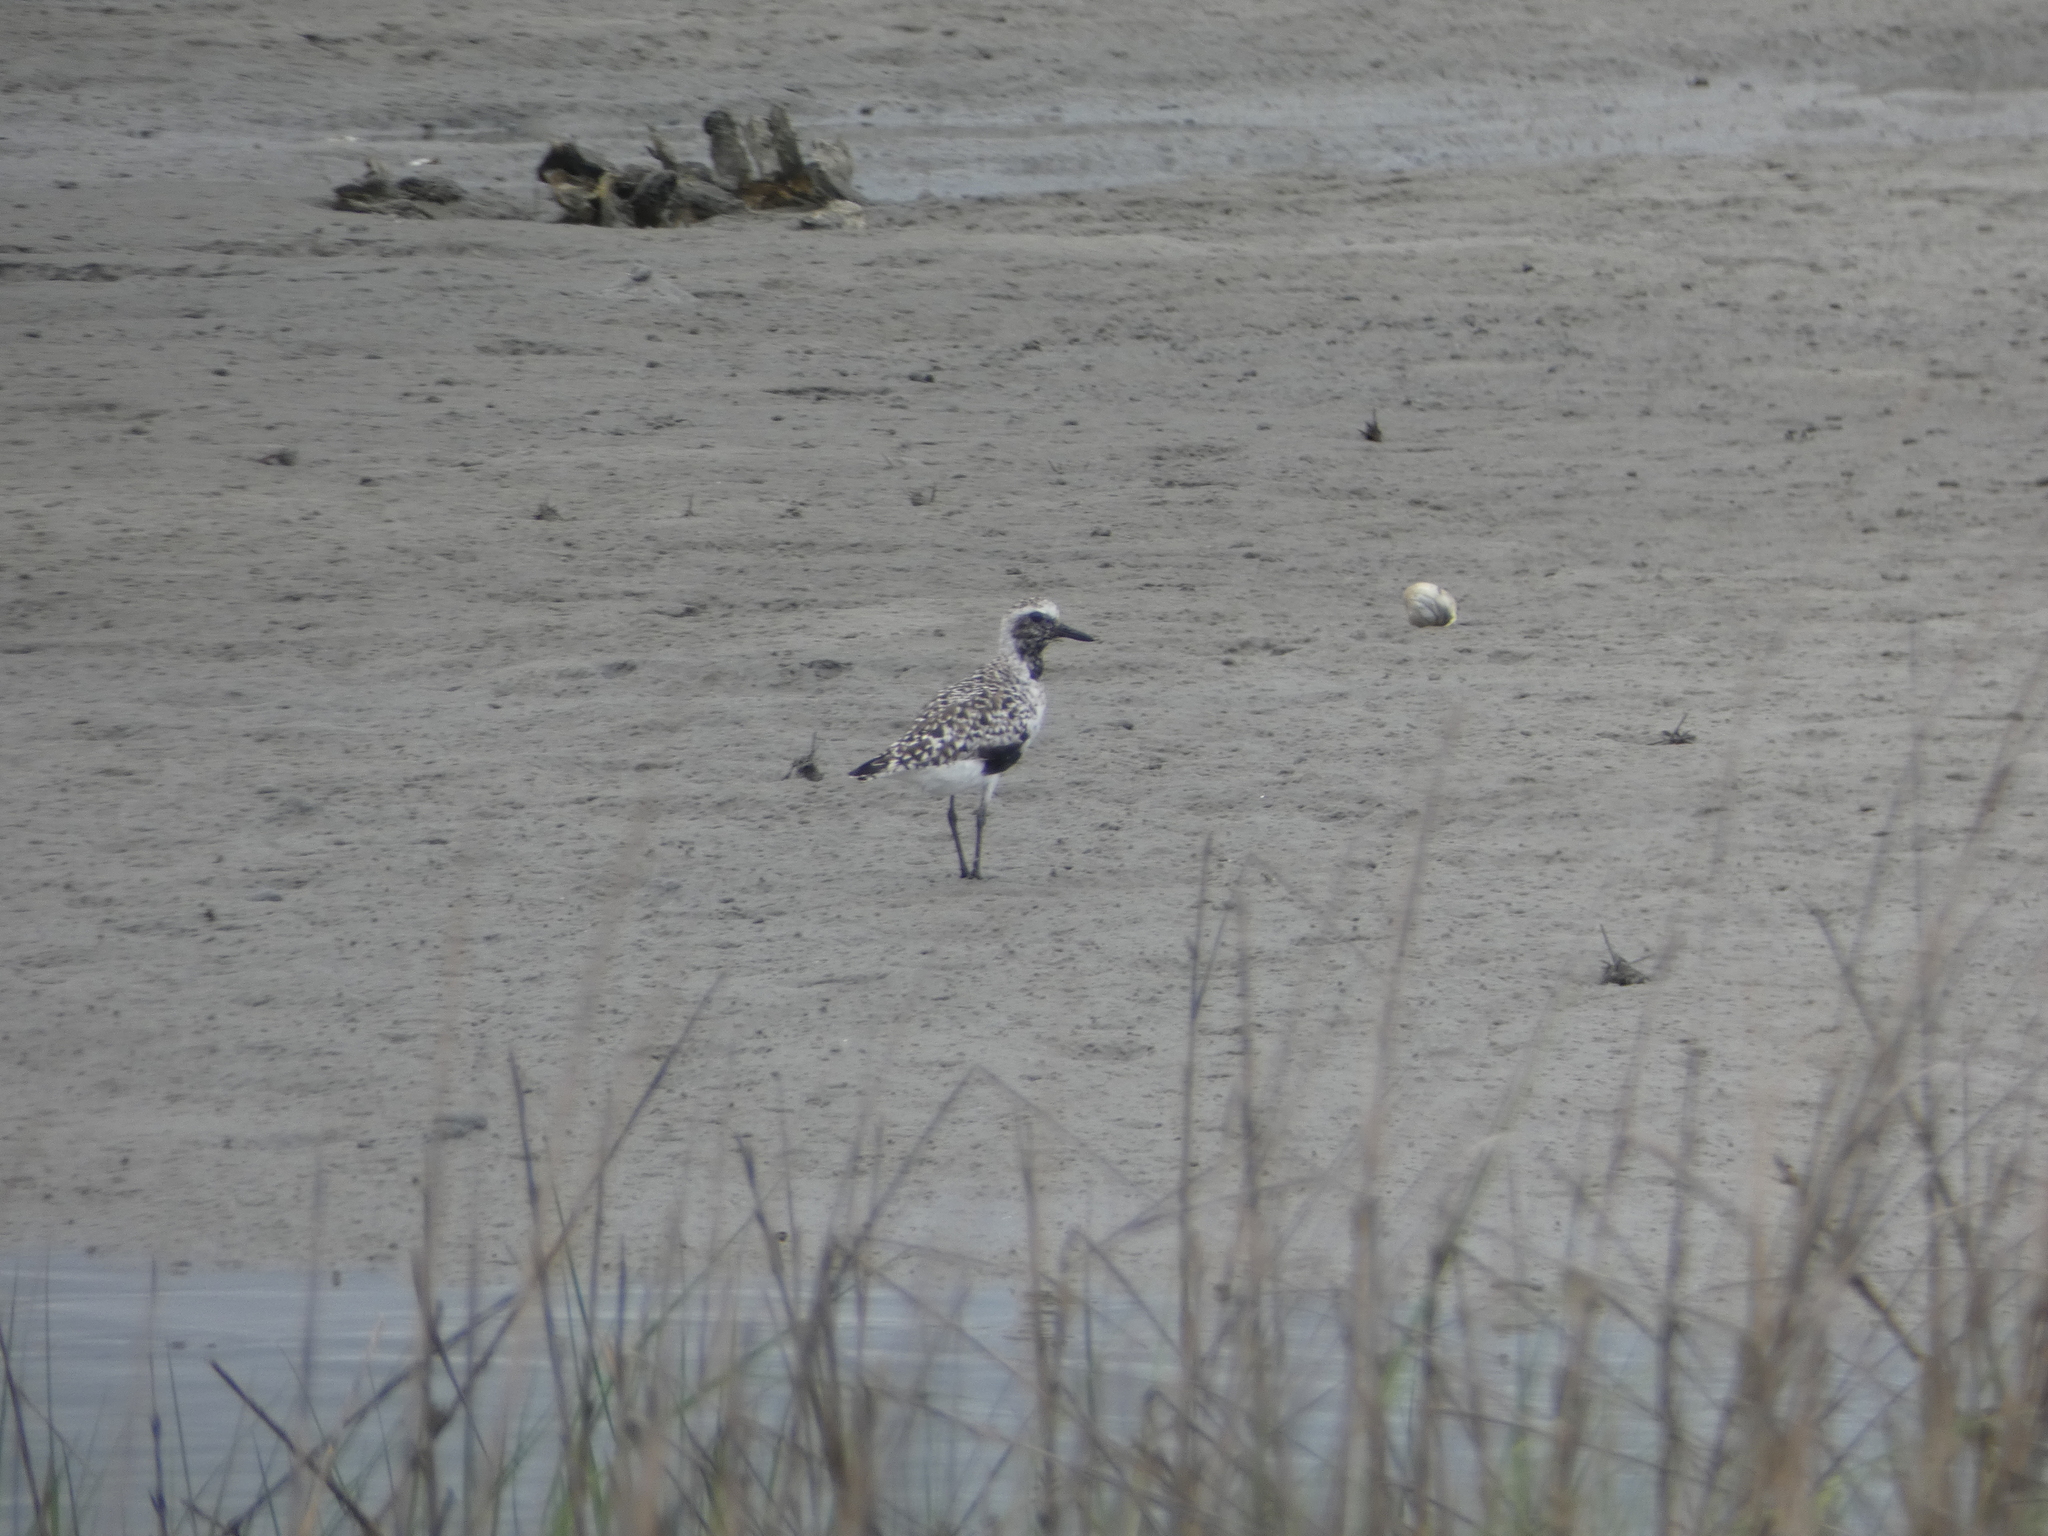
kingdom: Animalia
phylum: Chordata
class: Aves
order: Charadriiformes
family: Charadriidae
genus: Pluvialis
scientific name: Pluvialis squatarola
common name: Grey plover
